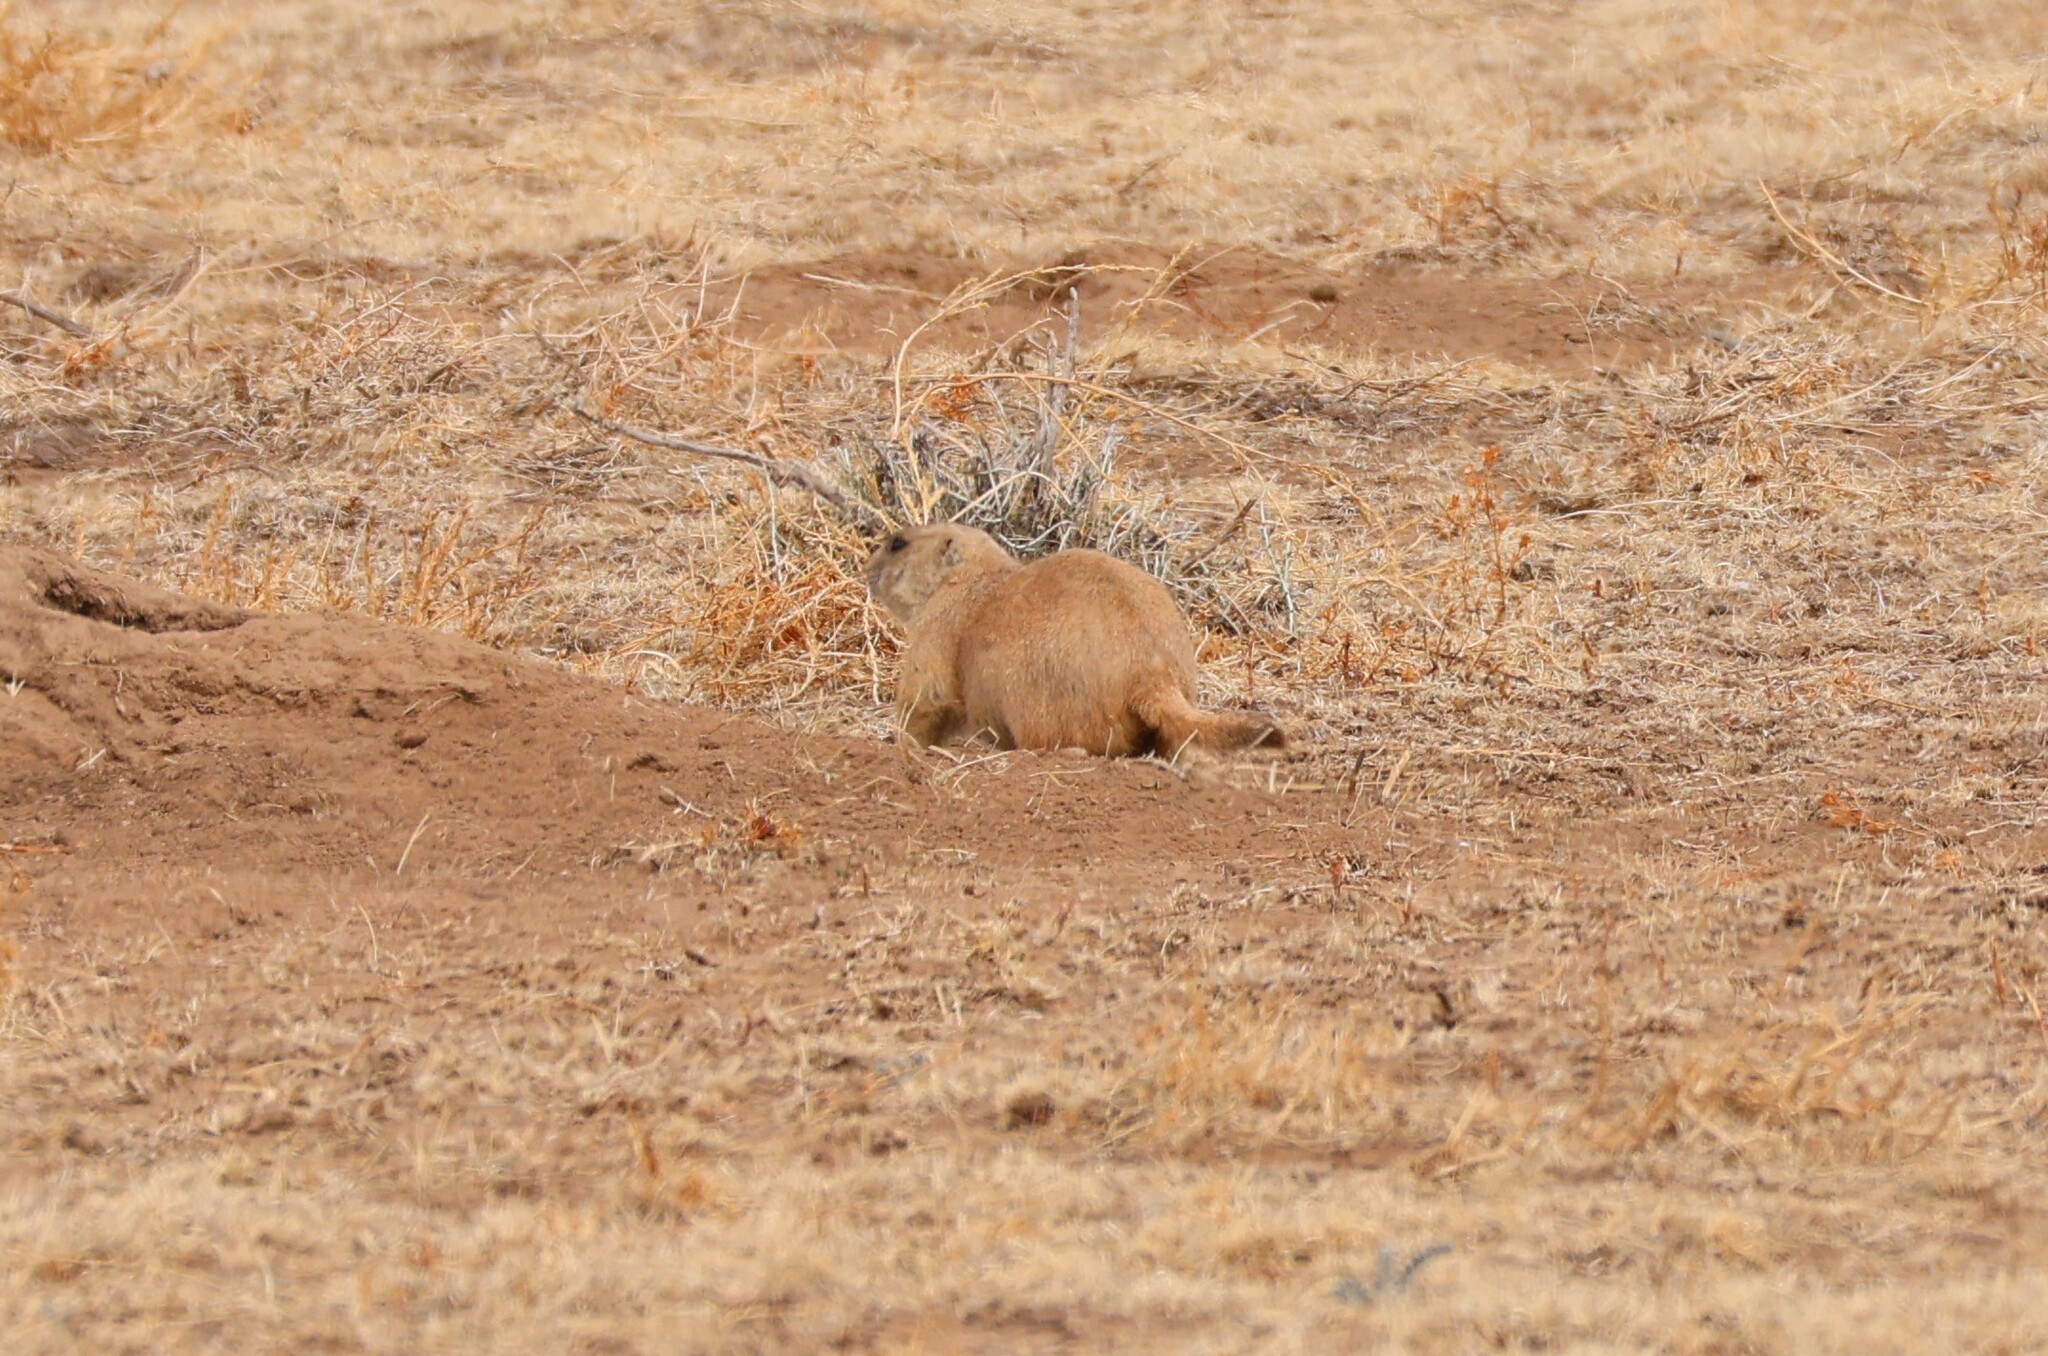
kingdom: Animalia
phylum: Chordata
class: Mammalia
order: Rodentia
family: Sciuridae
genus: Cynomys
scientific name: Cynomys ludovicianus
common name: Black-tailed prairie dog
